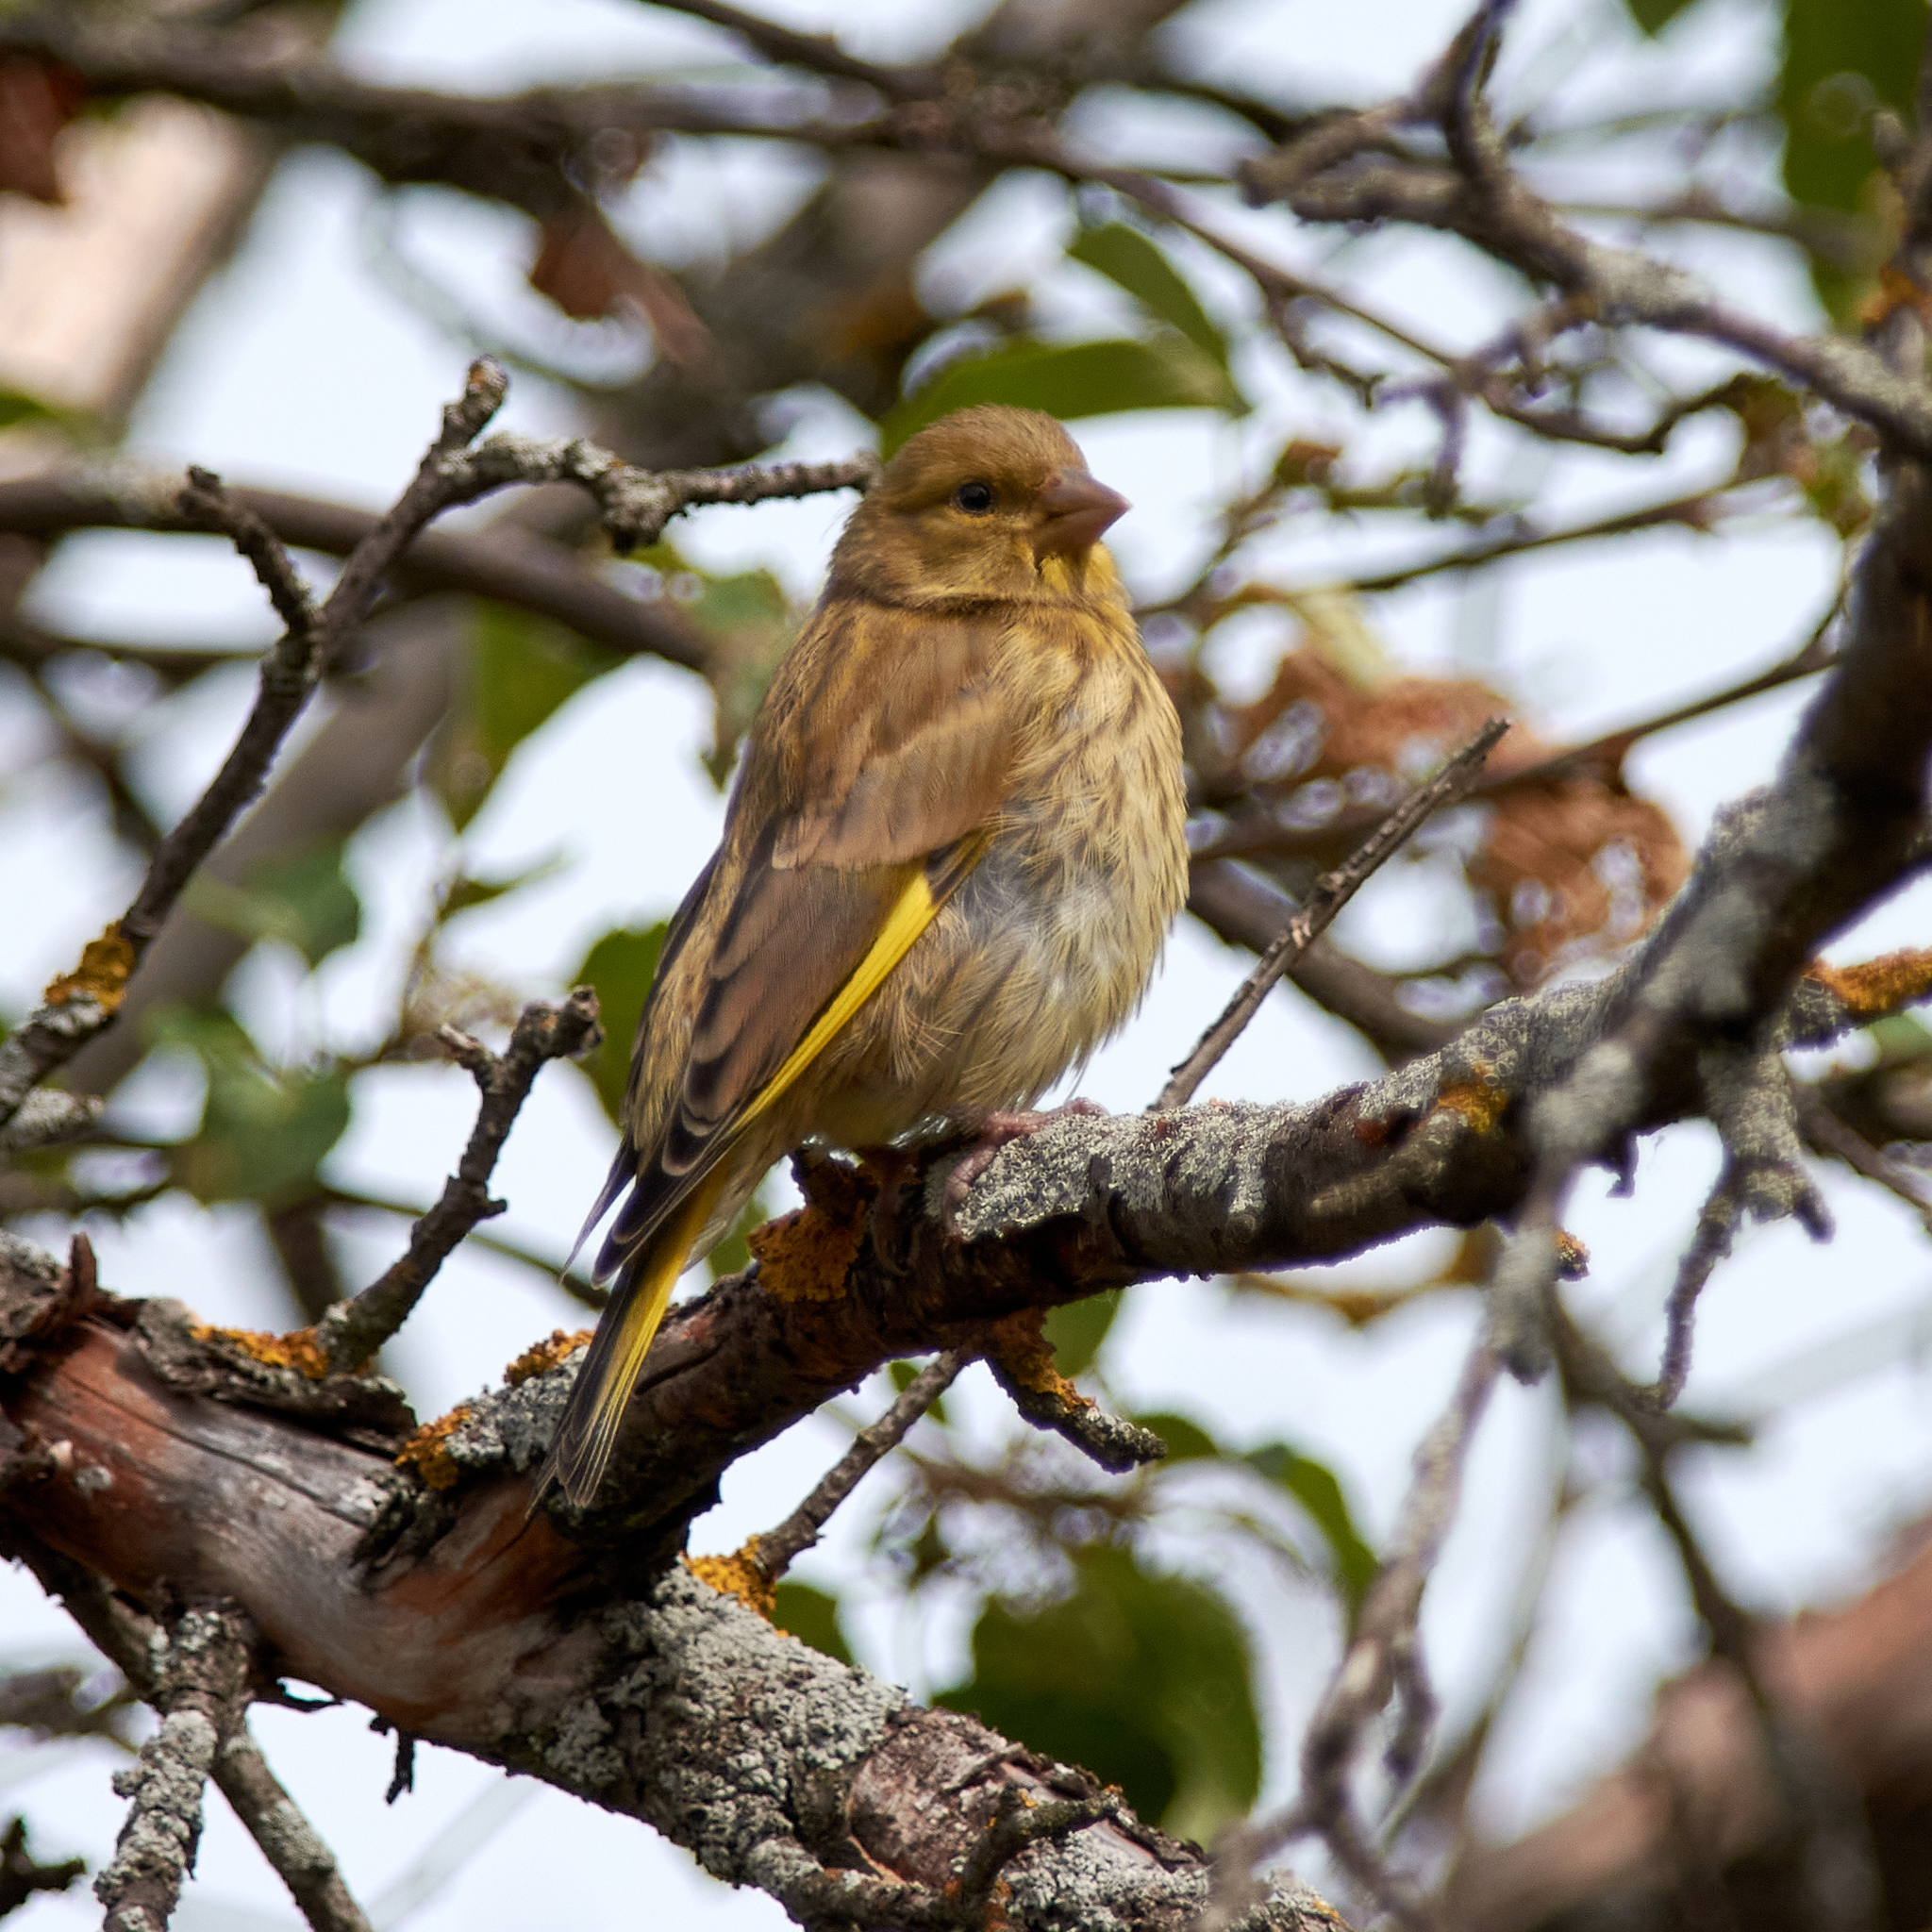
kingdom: Plantae
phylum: Tracheophyta
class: Liliopsida
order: Poales
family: Poaceae
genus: Chloris
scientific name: Chloris chloris
